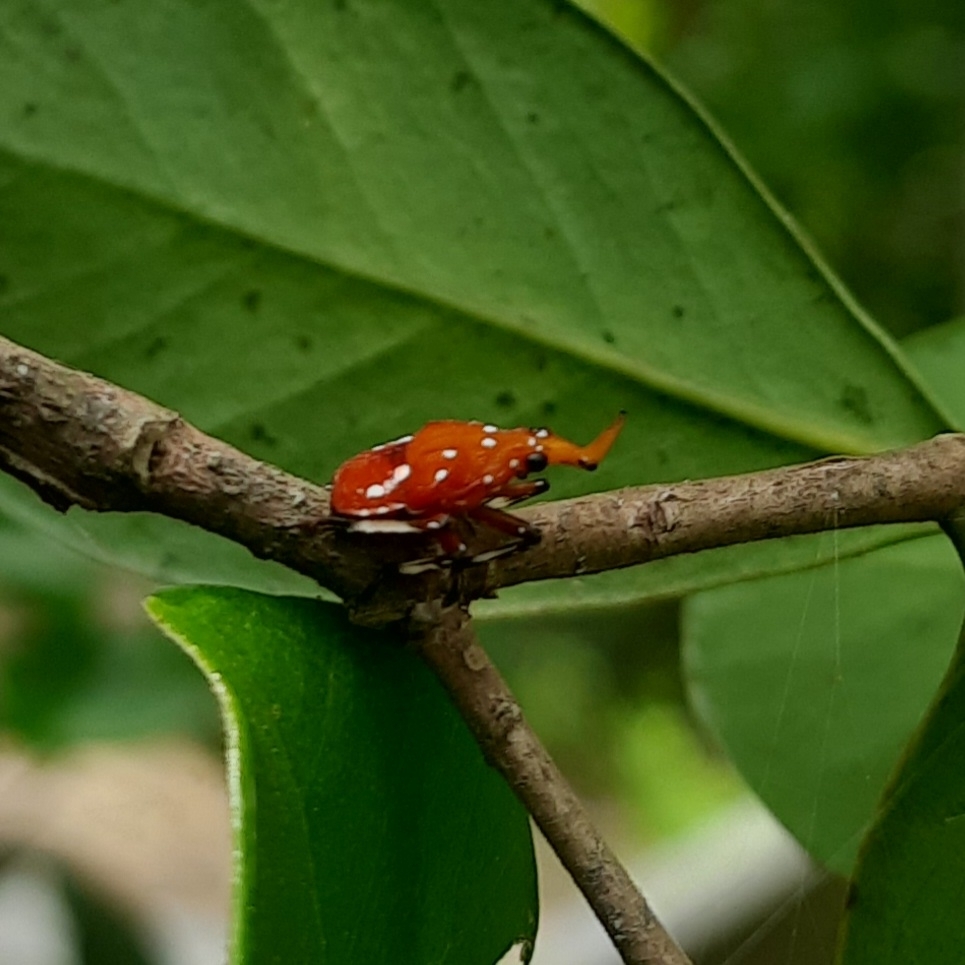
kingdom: Animalia
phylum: Arthropoda
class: Insecta
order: Hemiptera
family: Fulgoridae
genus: Kalidasa
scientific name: Kalidasa lanata
